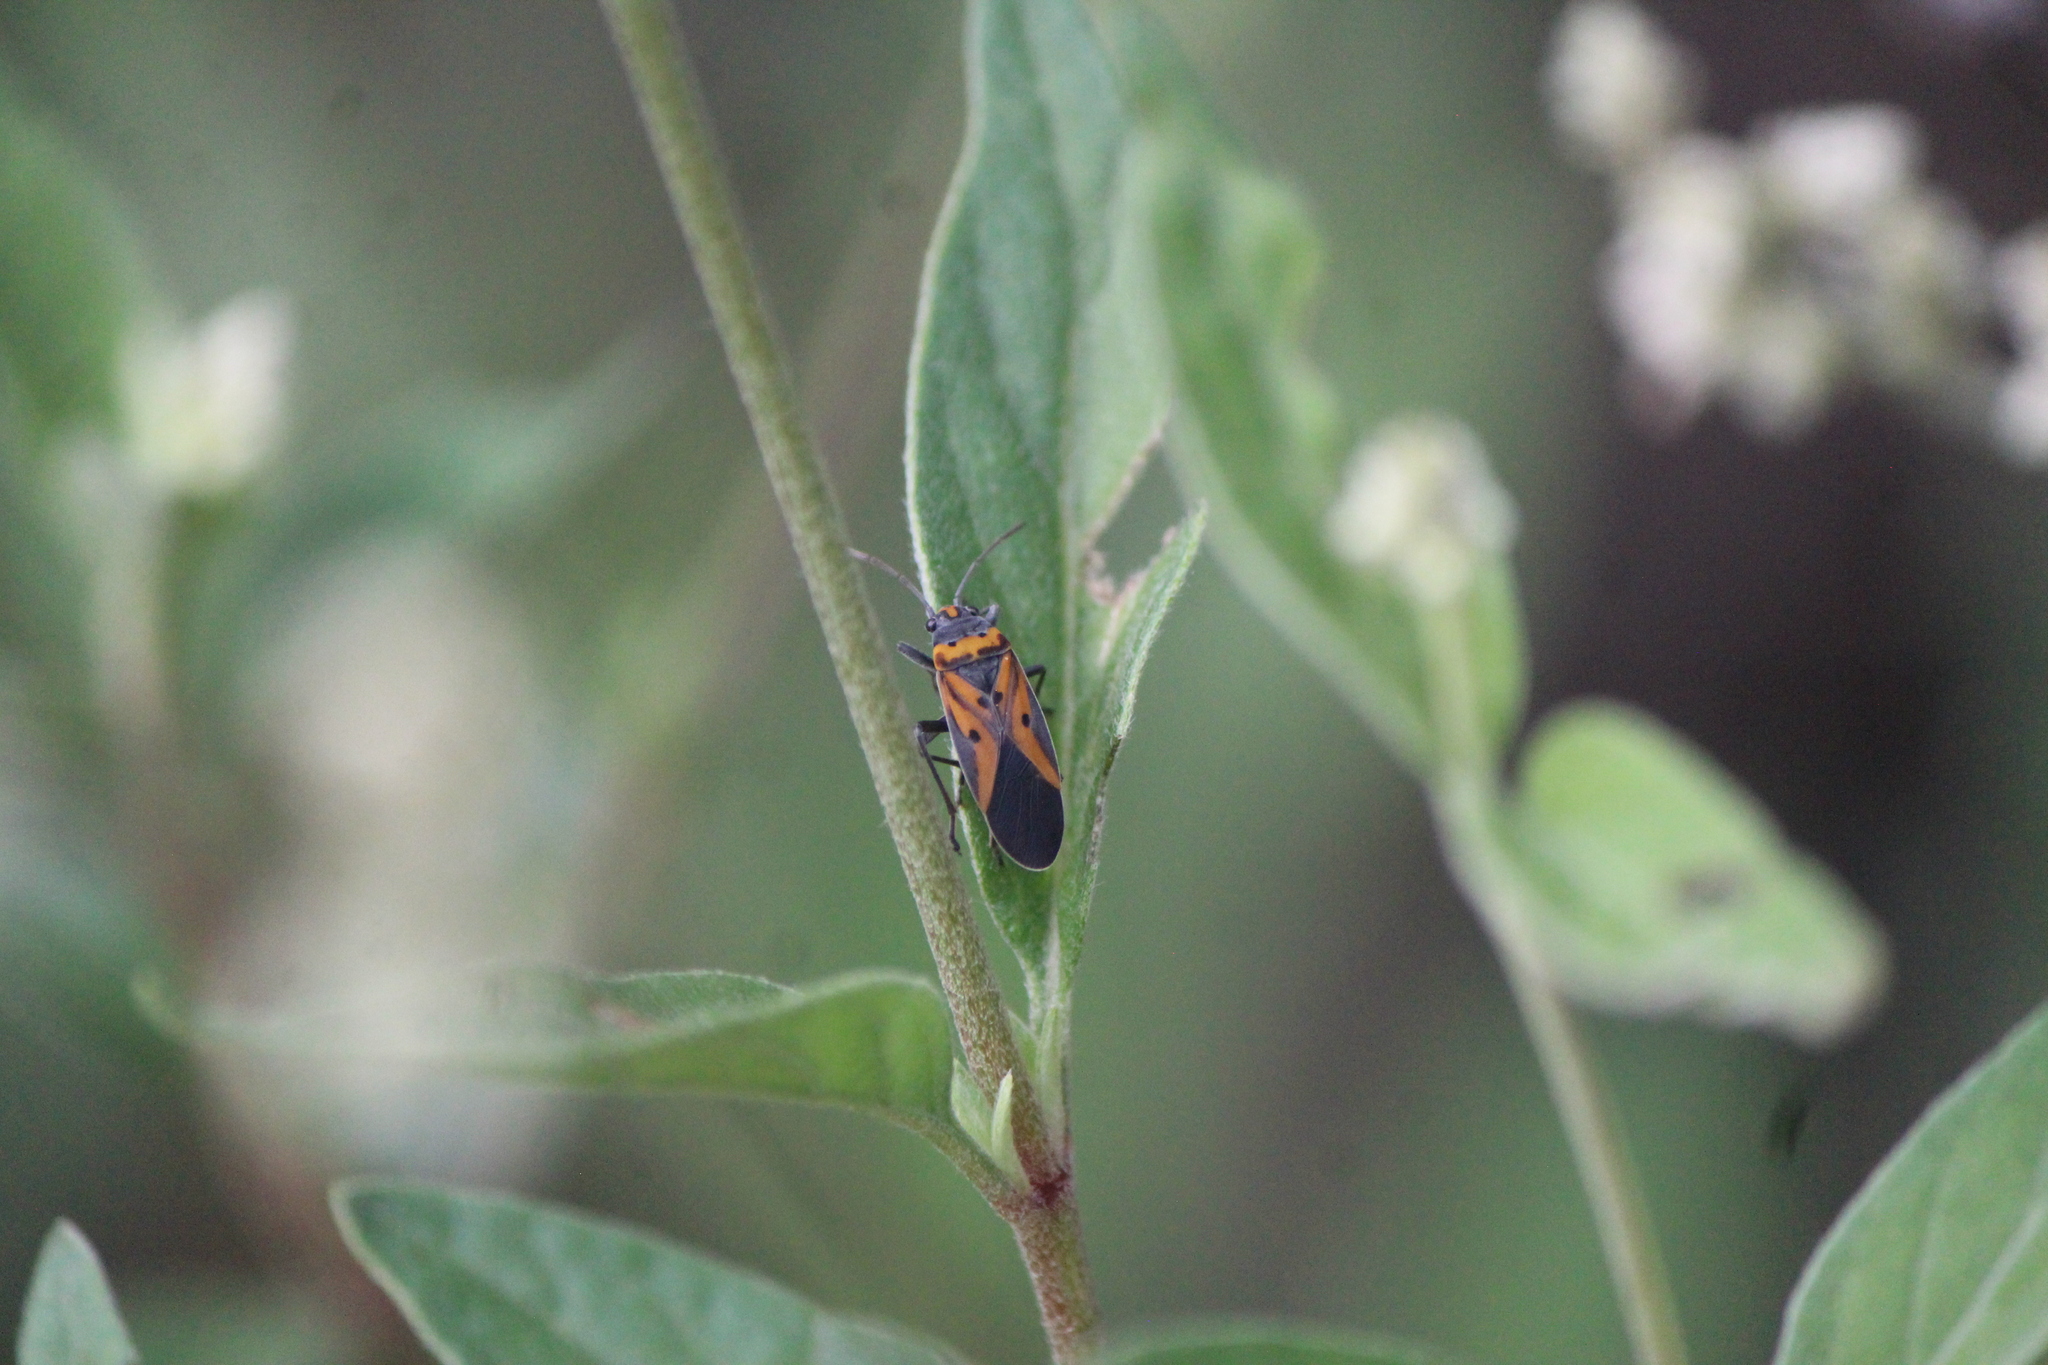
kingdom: Animalia
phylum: Arthropoda
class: Insecta
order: Hemiptera
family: Lygaeidae
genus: Lygaeus
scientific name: Lygaeus trux
